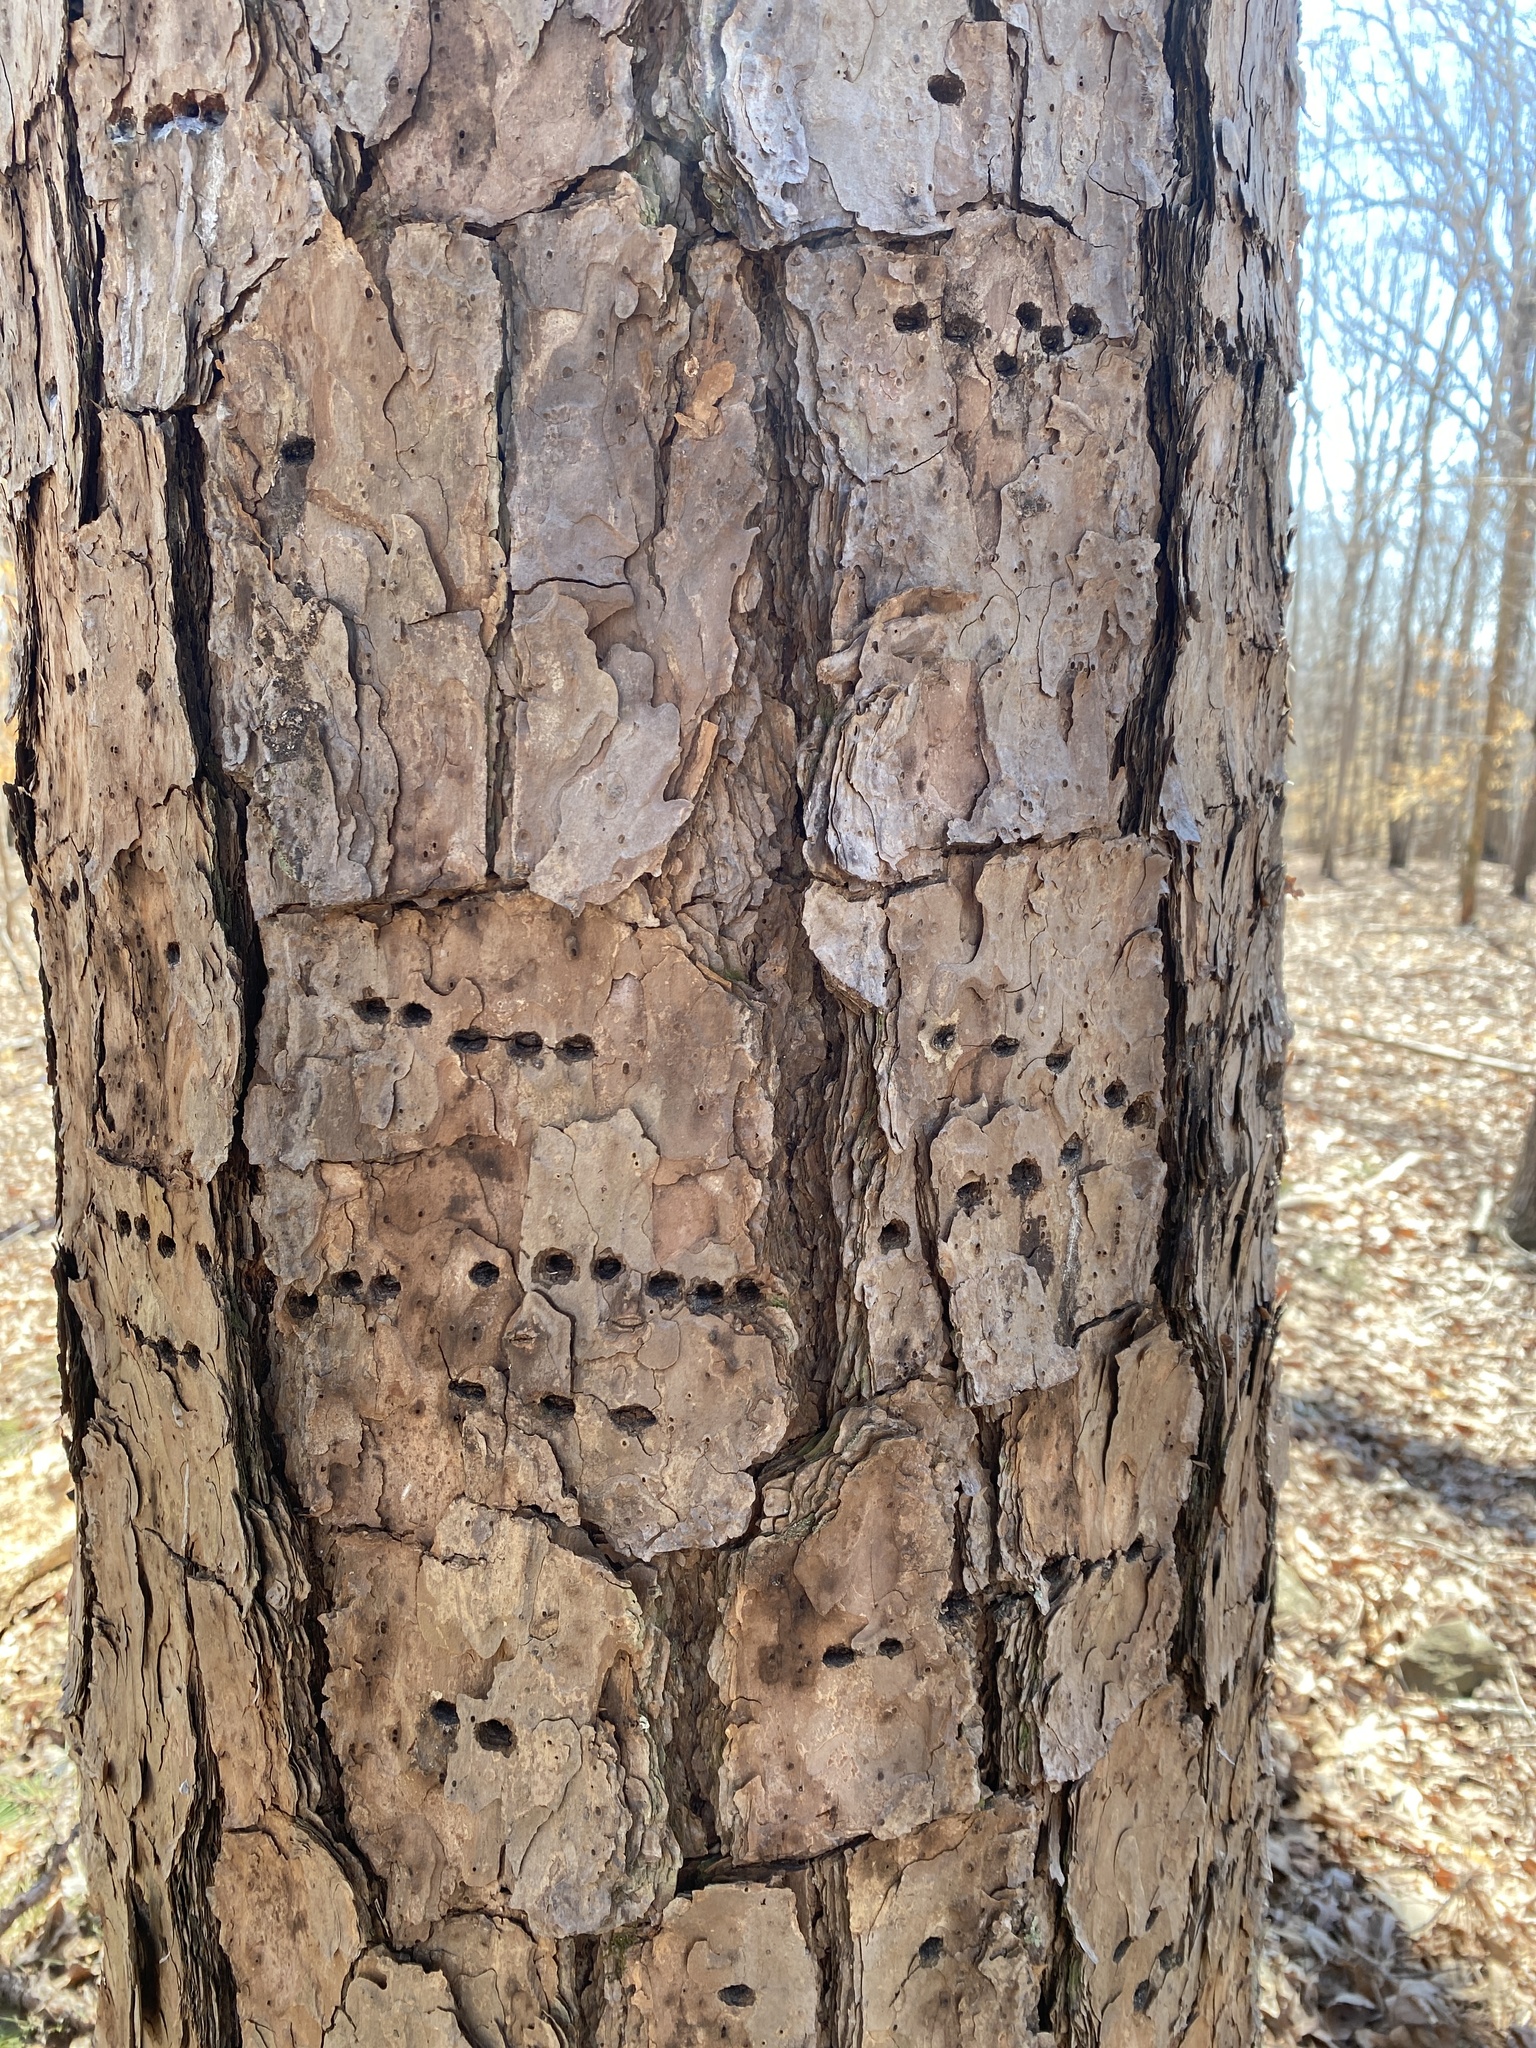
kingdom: Animalia
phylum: Chordata
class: Aves
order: Piciformes
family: Picidae
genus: Sphyrapicus
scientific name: Sphyrapicus varius
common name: Yellow-bellied sapsucker
